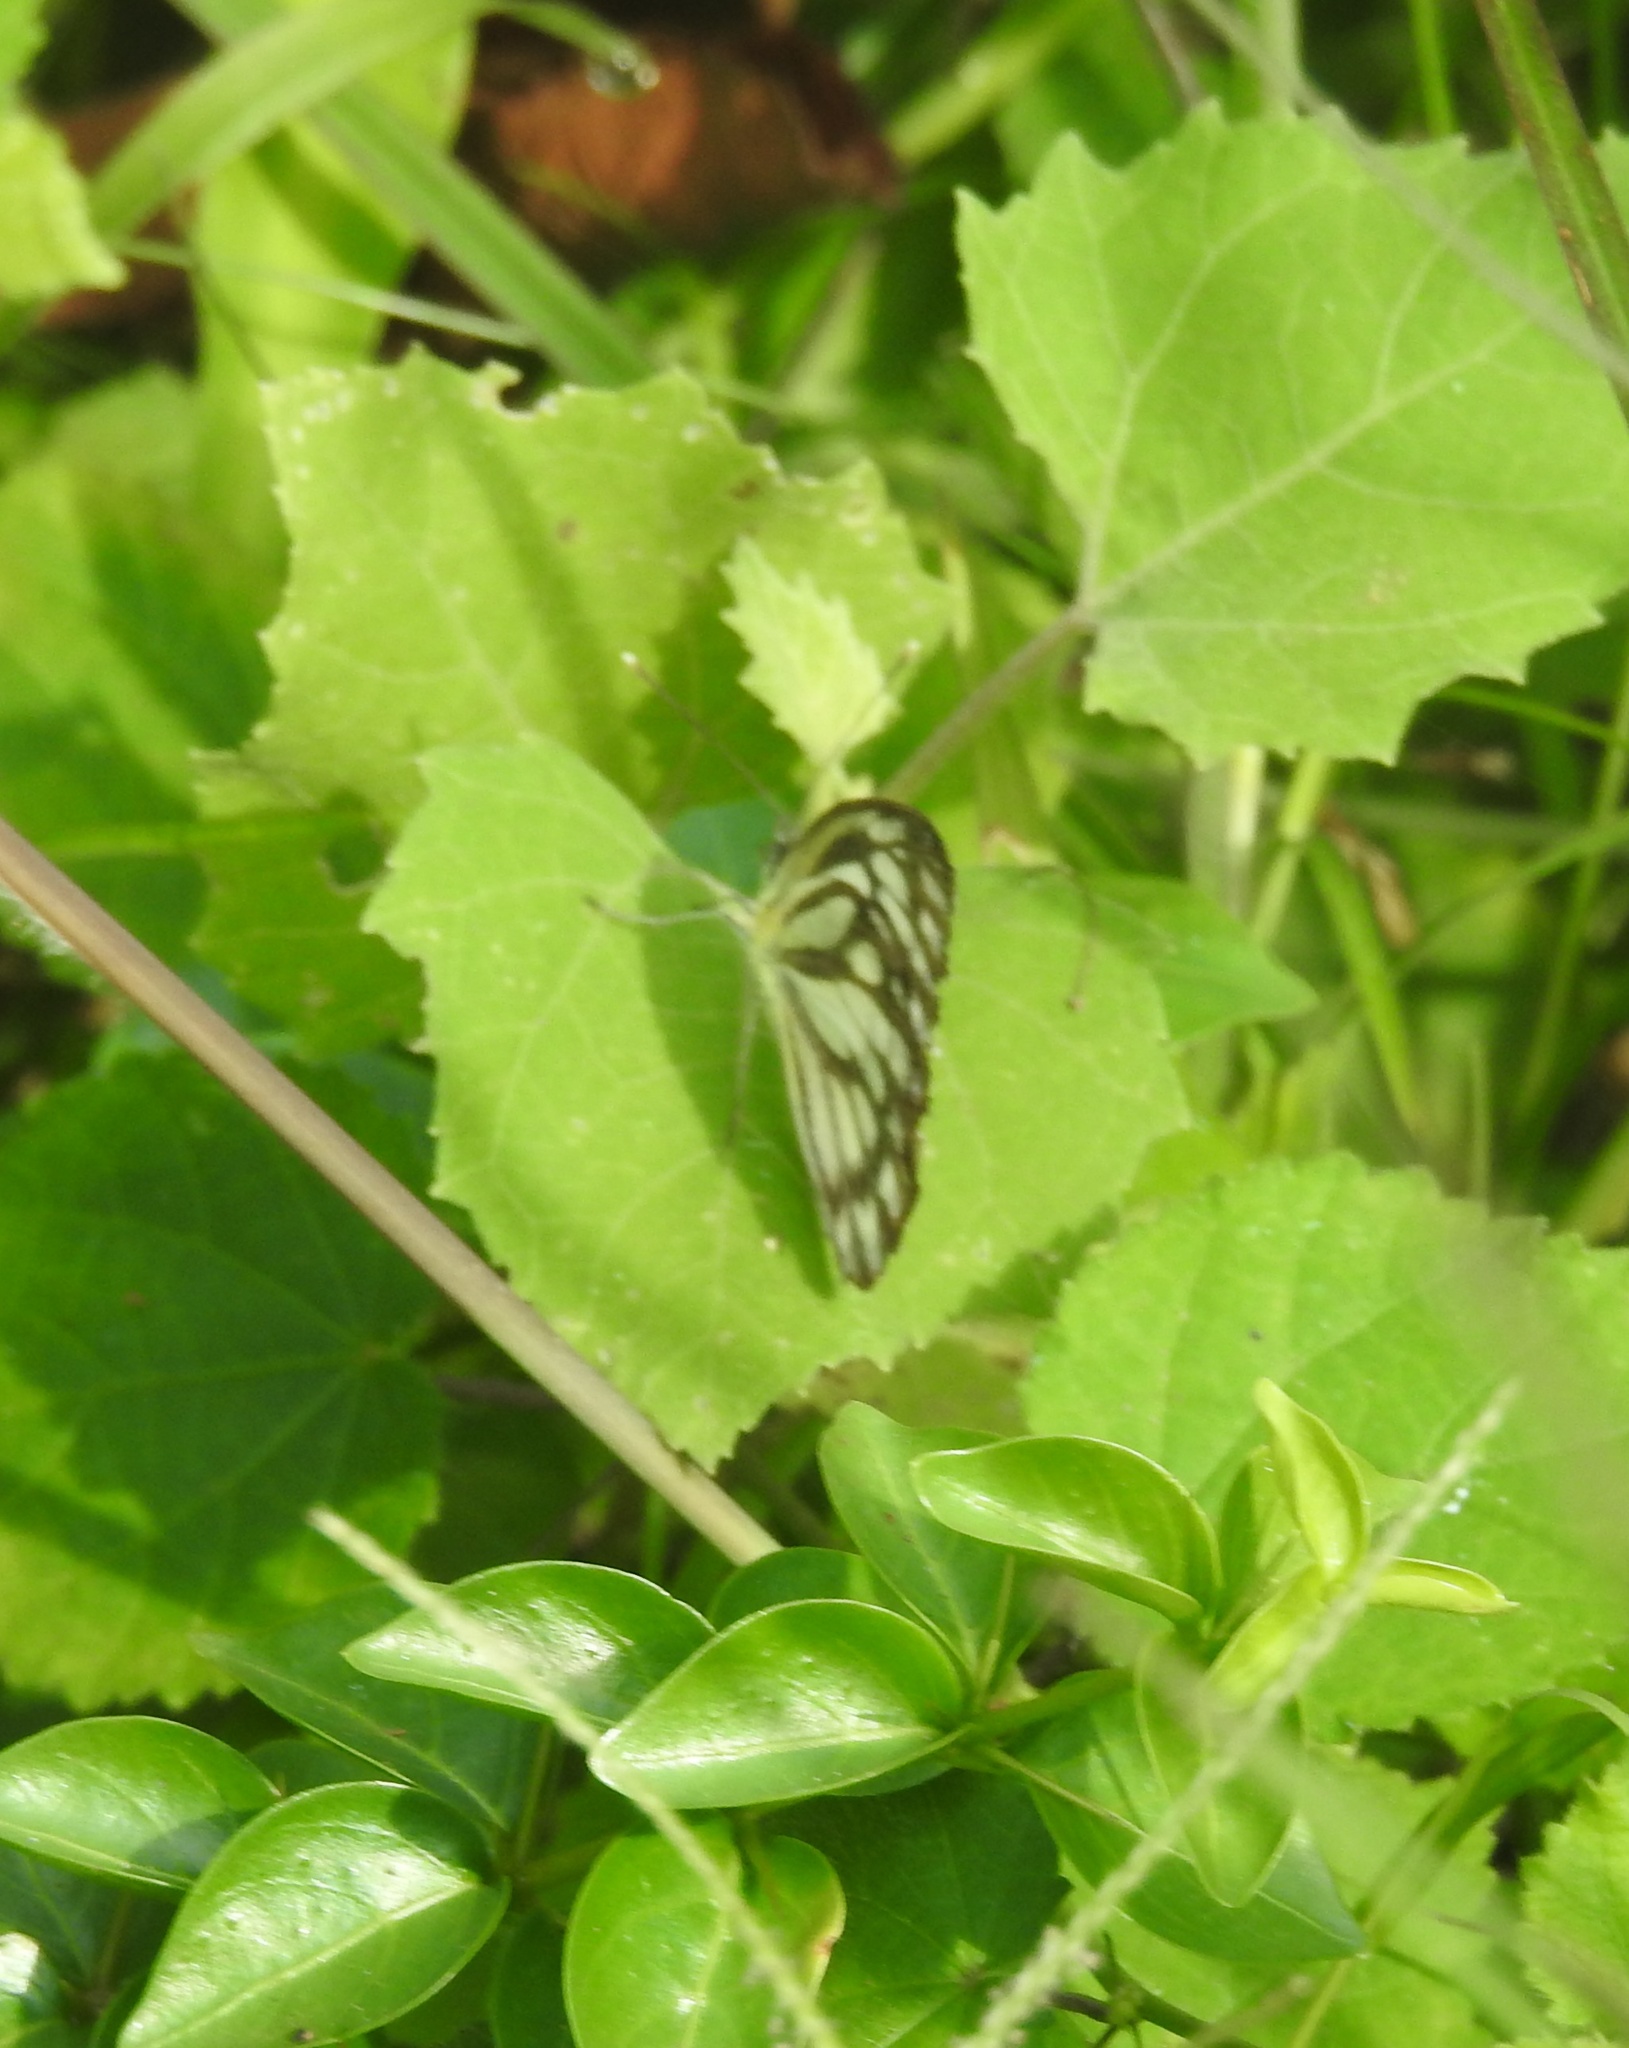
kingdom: Animalia
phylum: Arthropoda
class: Insecta
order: Lepidoptera
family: Pieridae
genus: Cepora
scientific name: Cepora nerissa
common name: Common gull
